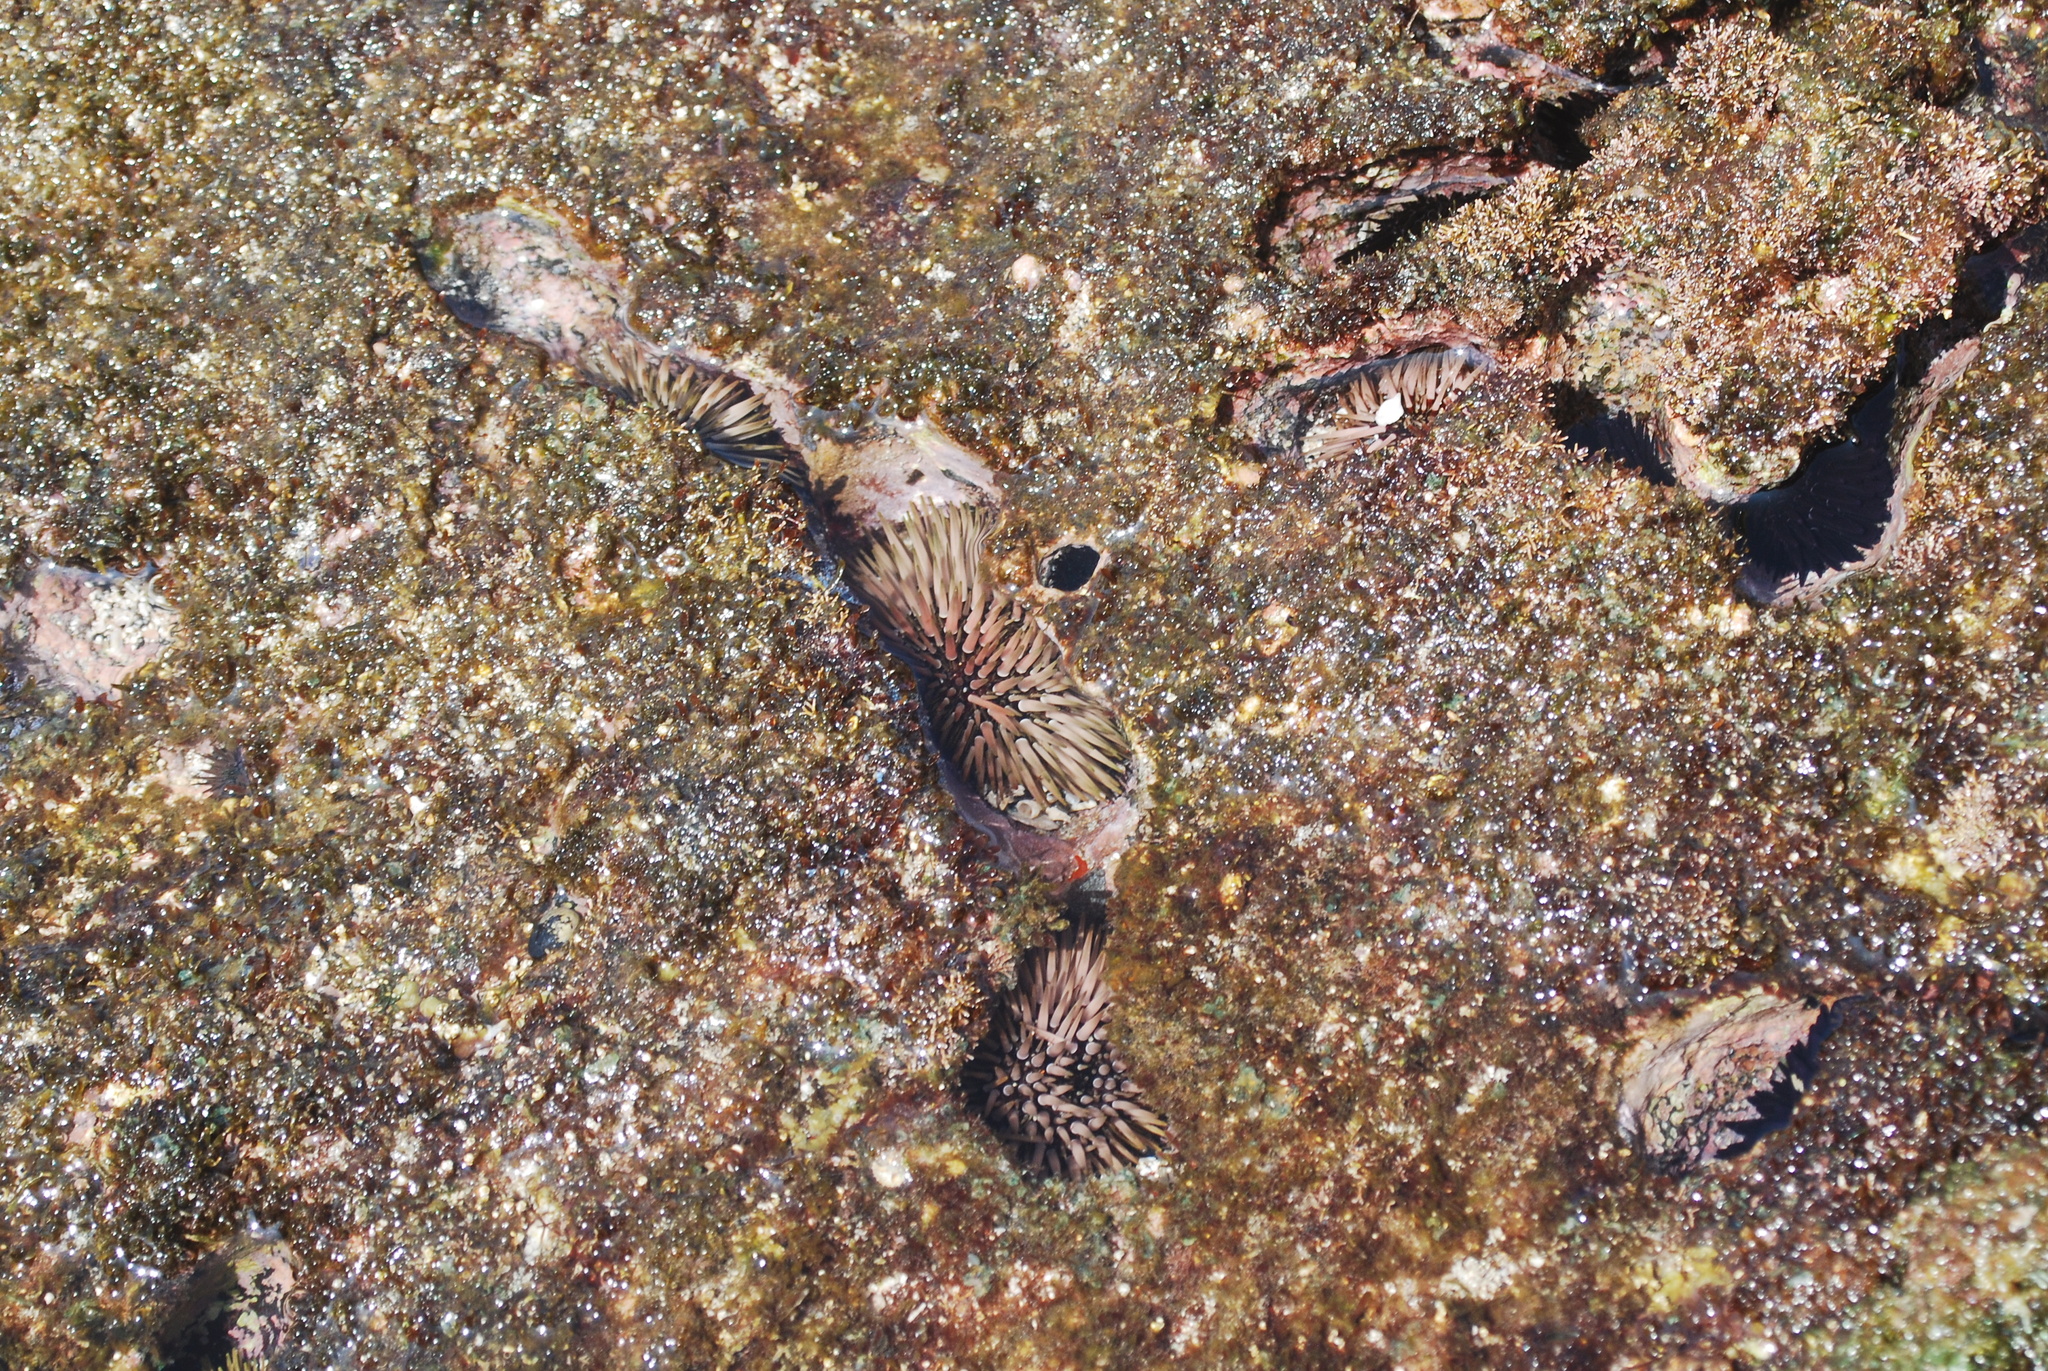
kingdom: Animalia
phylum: Echinodermata
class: Echinoidea
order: Camarodonta
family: Echinometridae
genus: Echinometra
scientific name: Echinometra mathaei
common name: Rock-boring urchin
